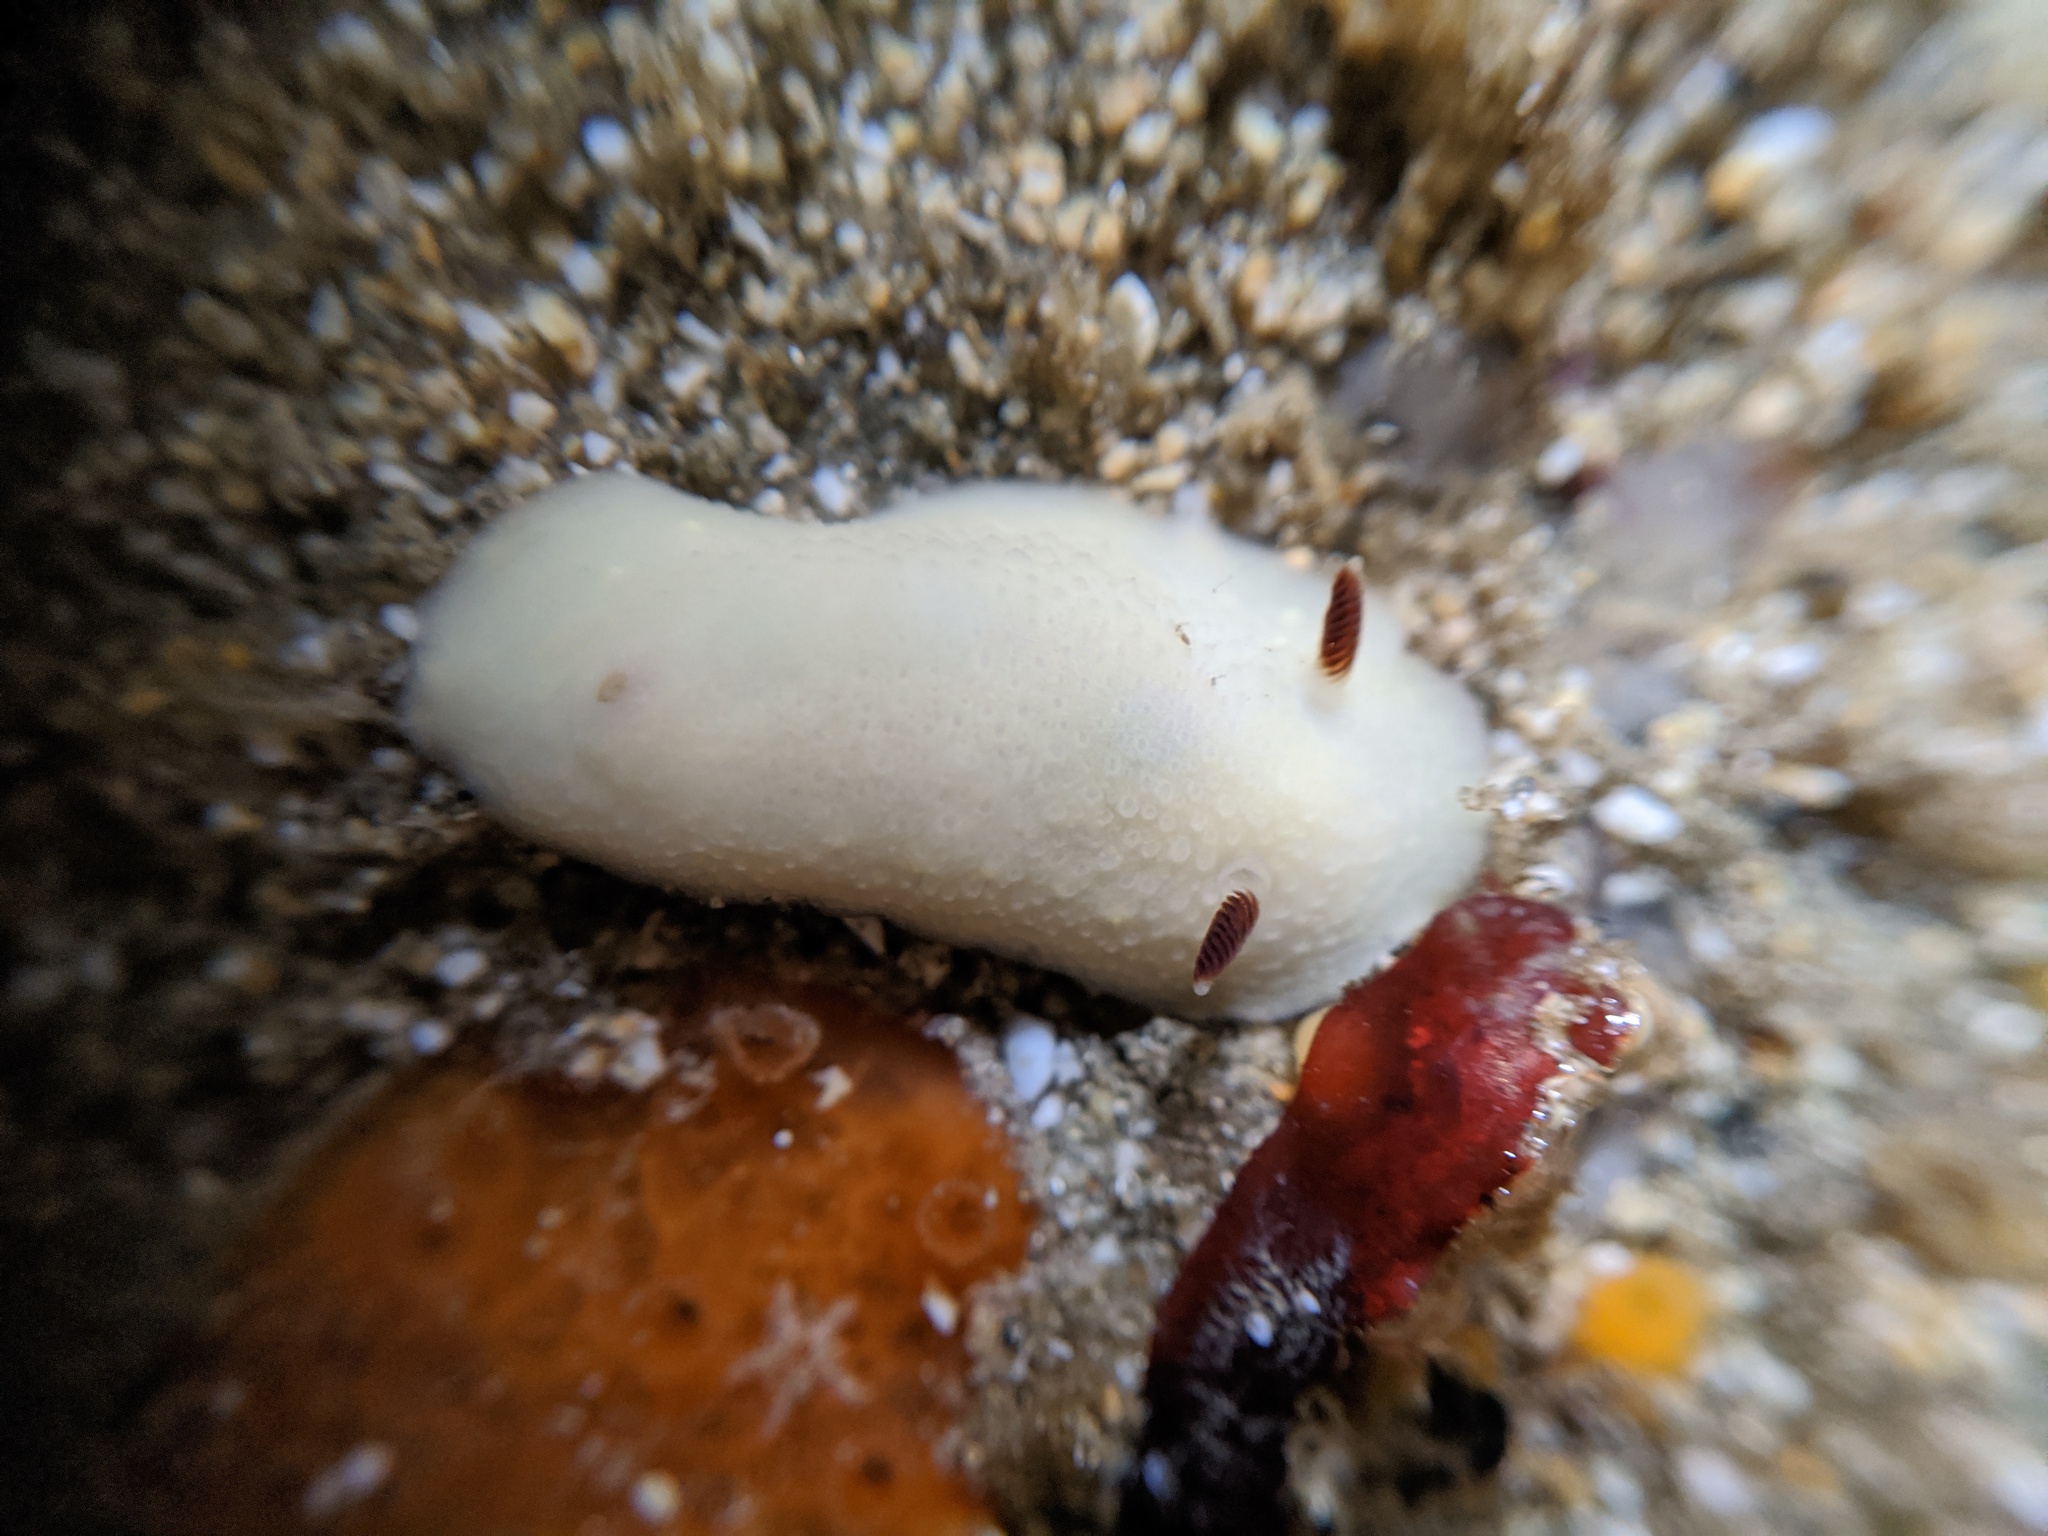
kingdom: Animalia
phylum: Mollusca
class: Gastropoda
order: Nudibranchia
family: Cadlinidae
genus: Cadlina
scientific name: Cadlina flavomaculata
